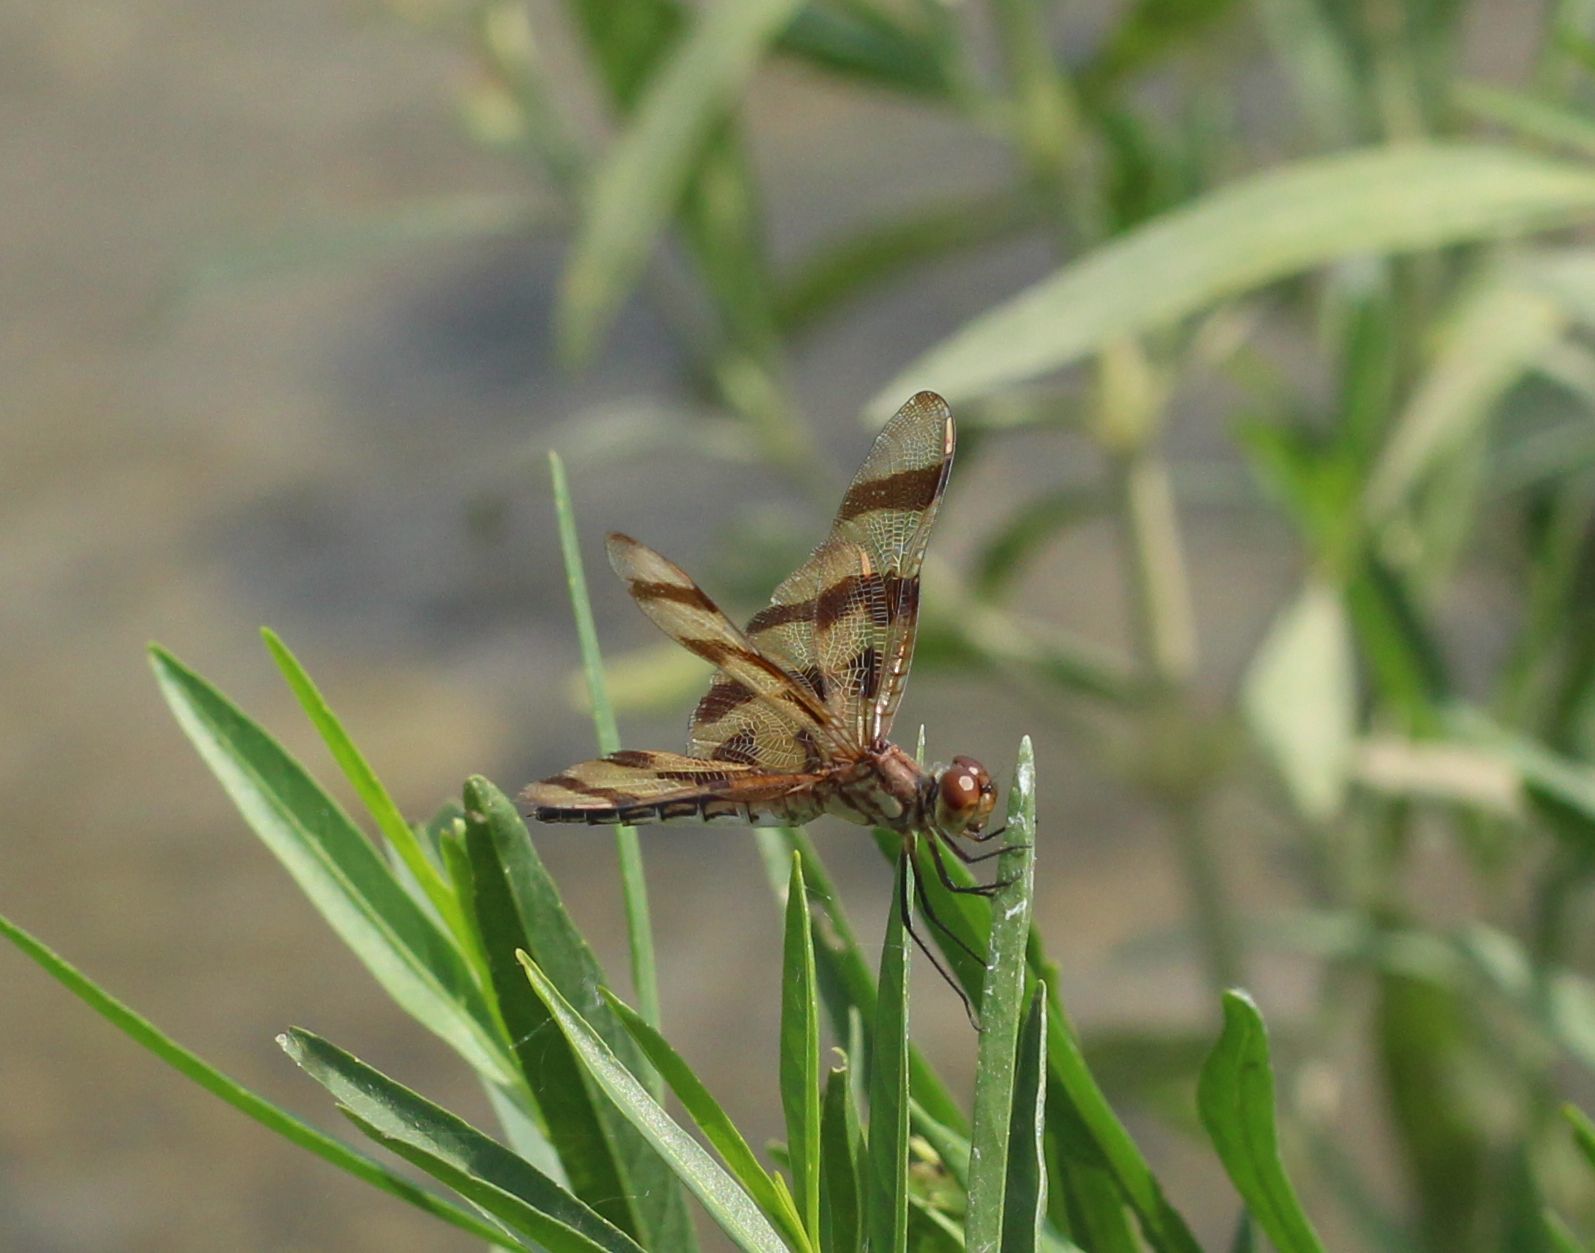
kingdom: Animalia
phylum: Arthropoda
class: Insecta
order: Odonata
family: Libellulidae
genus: Celithemis
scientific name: Celithemis eponina
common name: Halloween pennant
